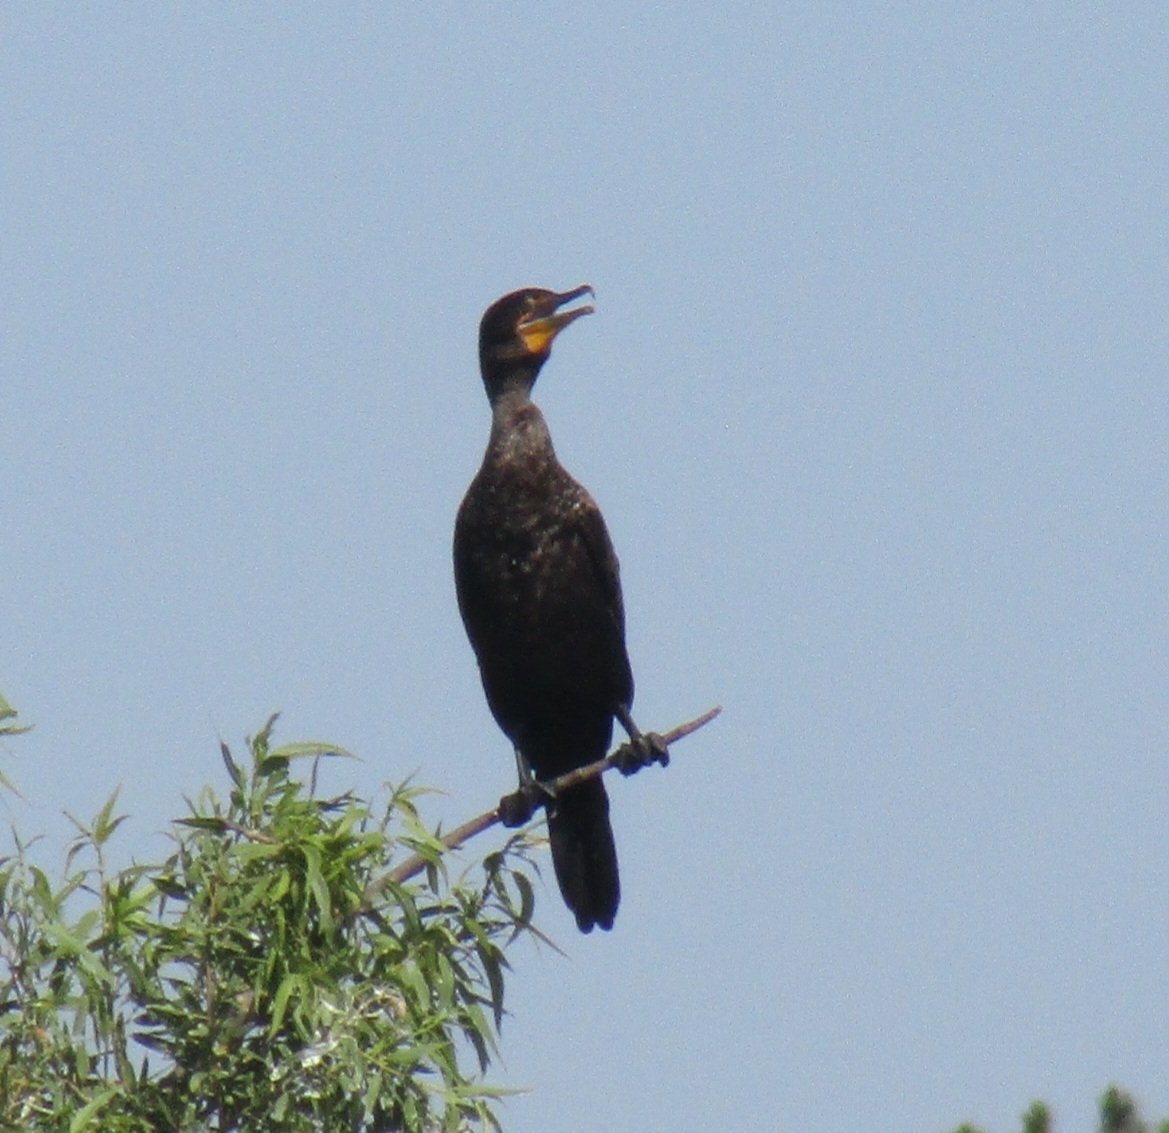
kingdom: Animalia
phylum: Chordata
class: Aves
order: Suliformes
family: Phalacrocoracidae
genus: Phalacrocorax
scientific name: Phalacrocorax auritus
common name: Double-crested cormorant
